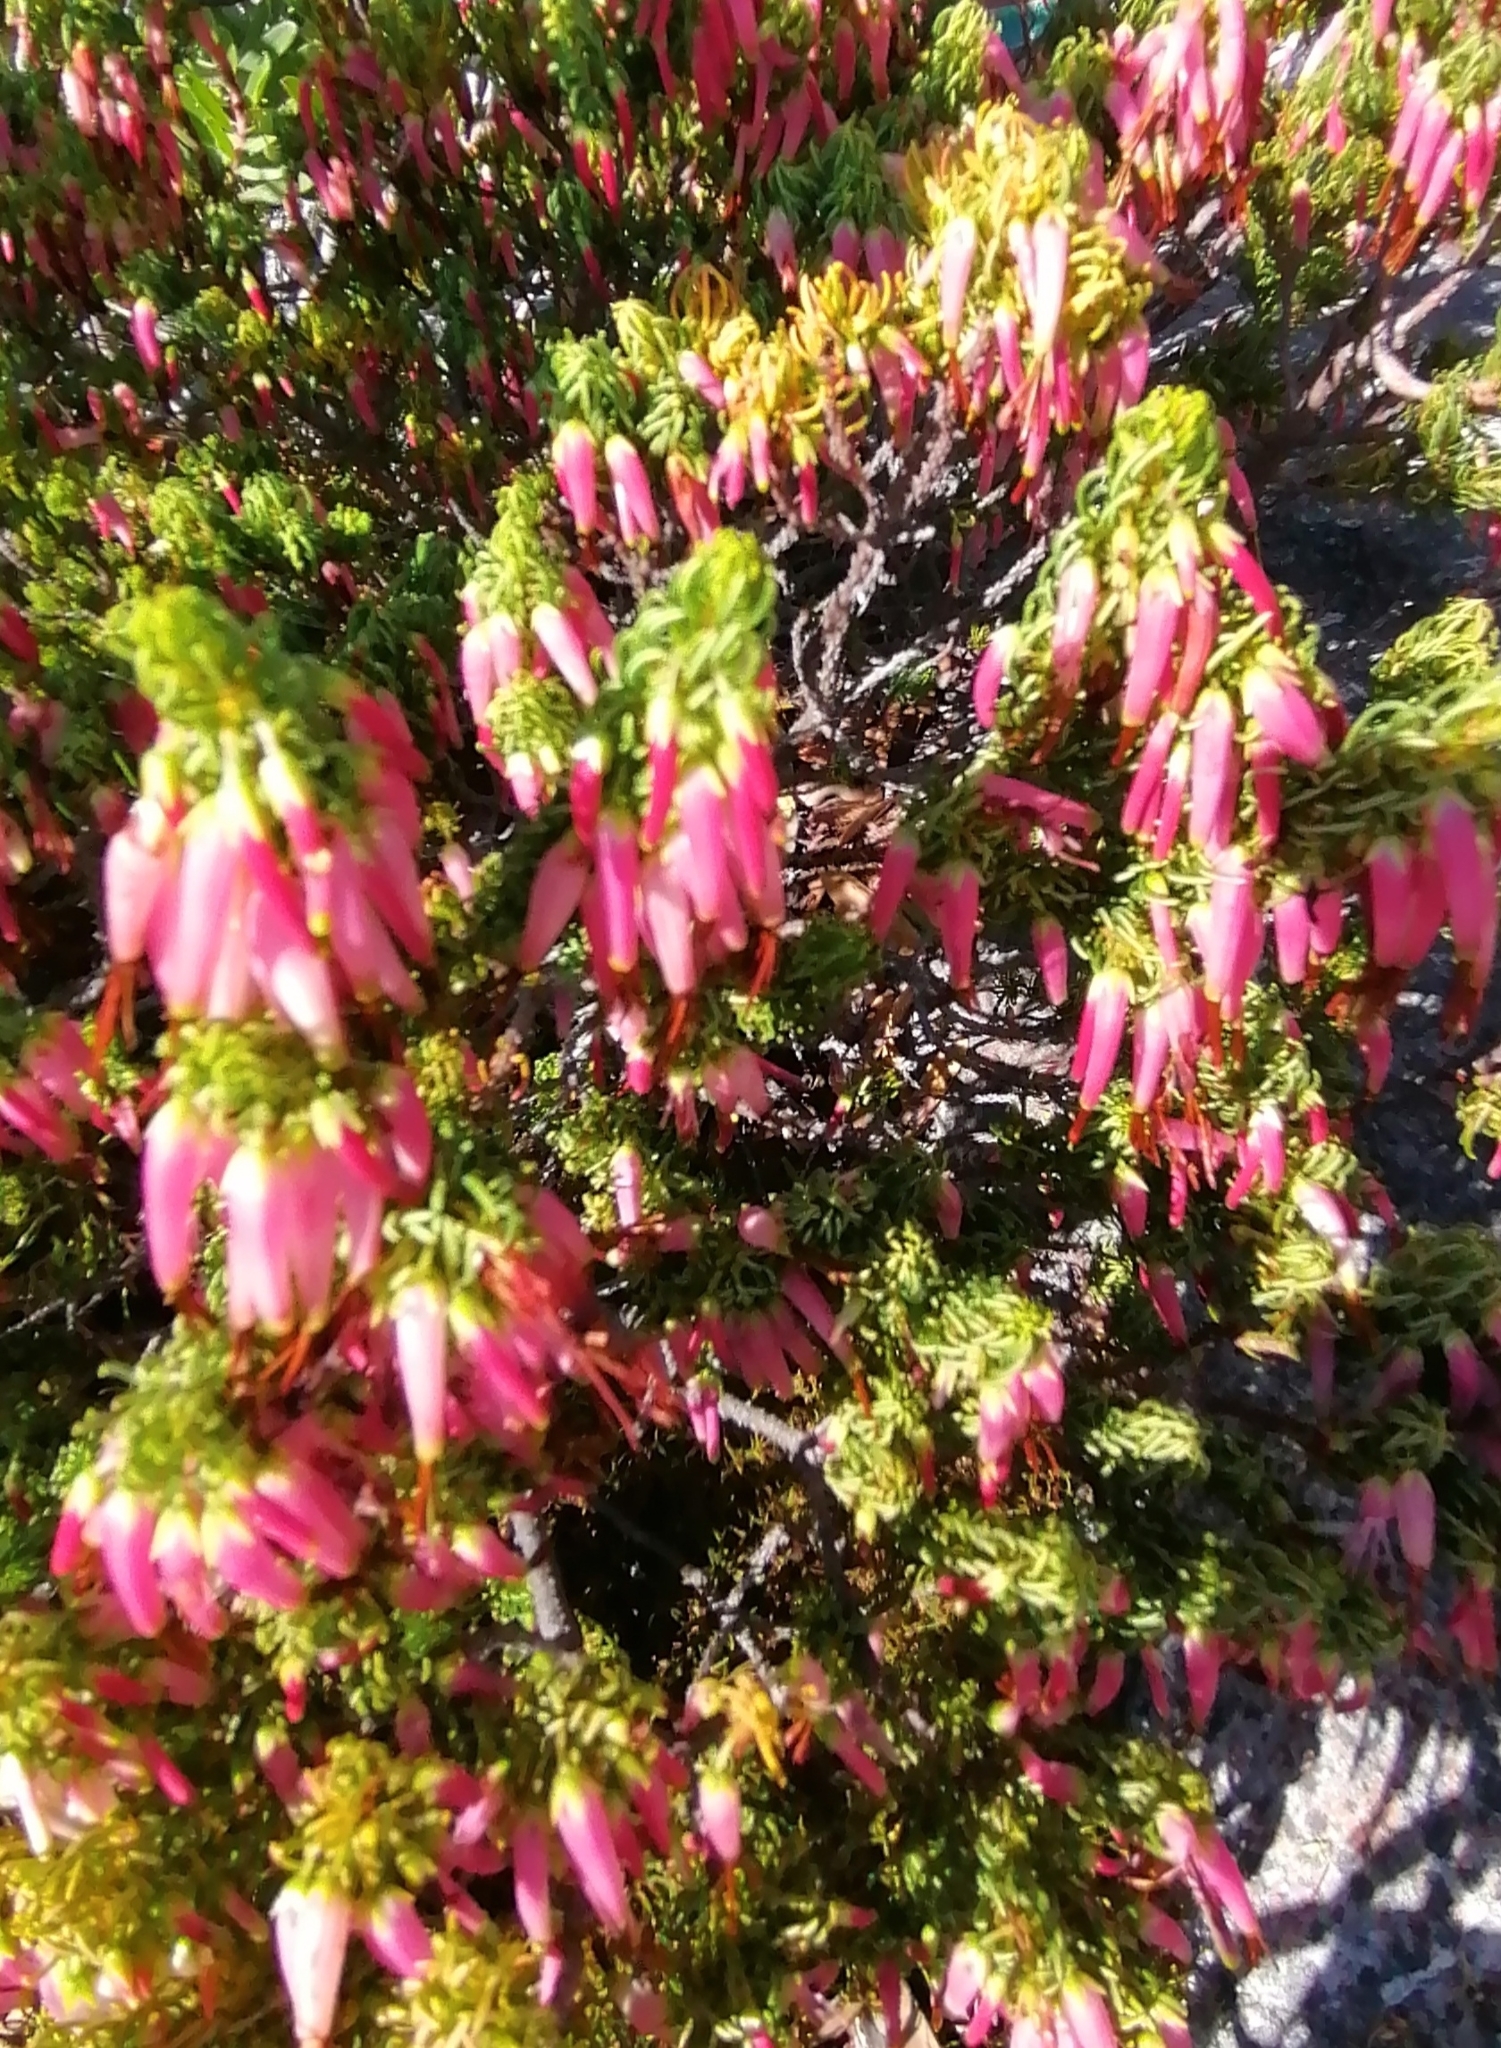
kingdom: Plantae
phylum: Tracheophyta
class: Magnoliopsida
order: Ericales
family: Ericaceae
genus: Erica
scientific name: Erica plukenetii
